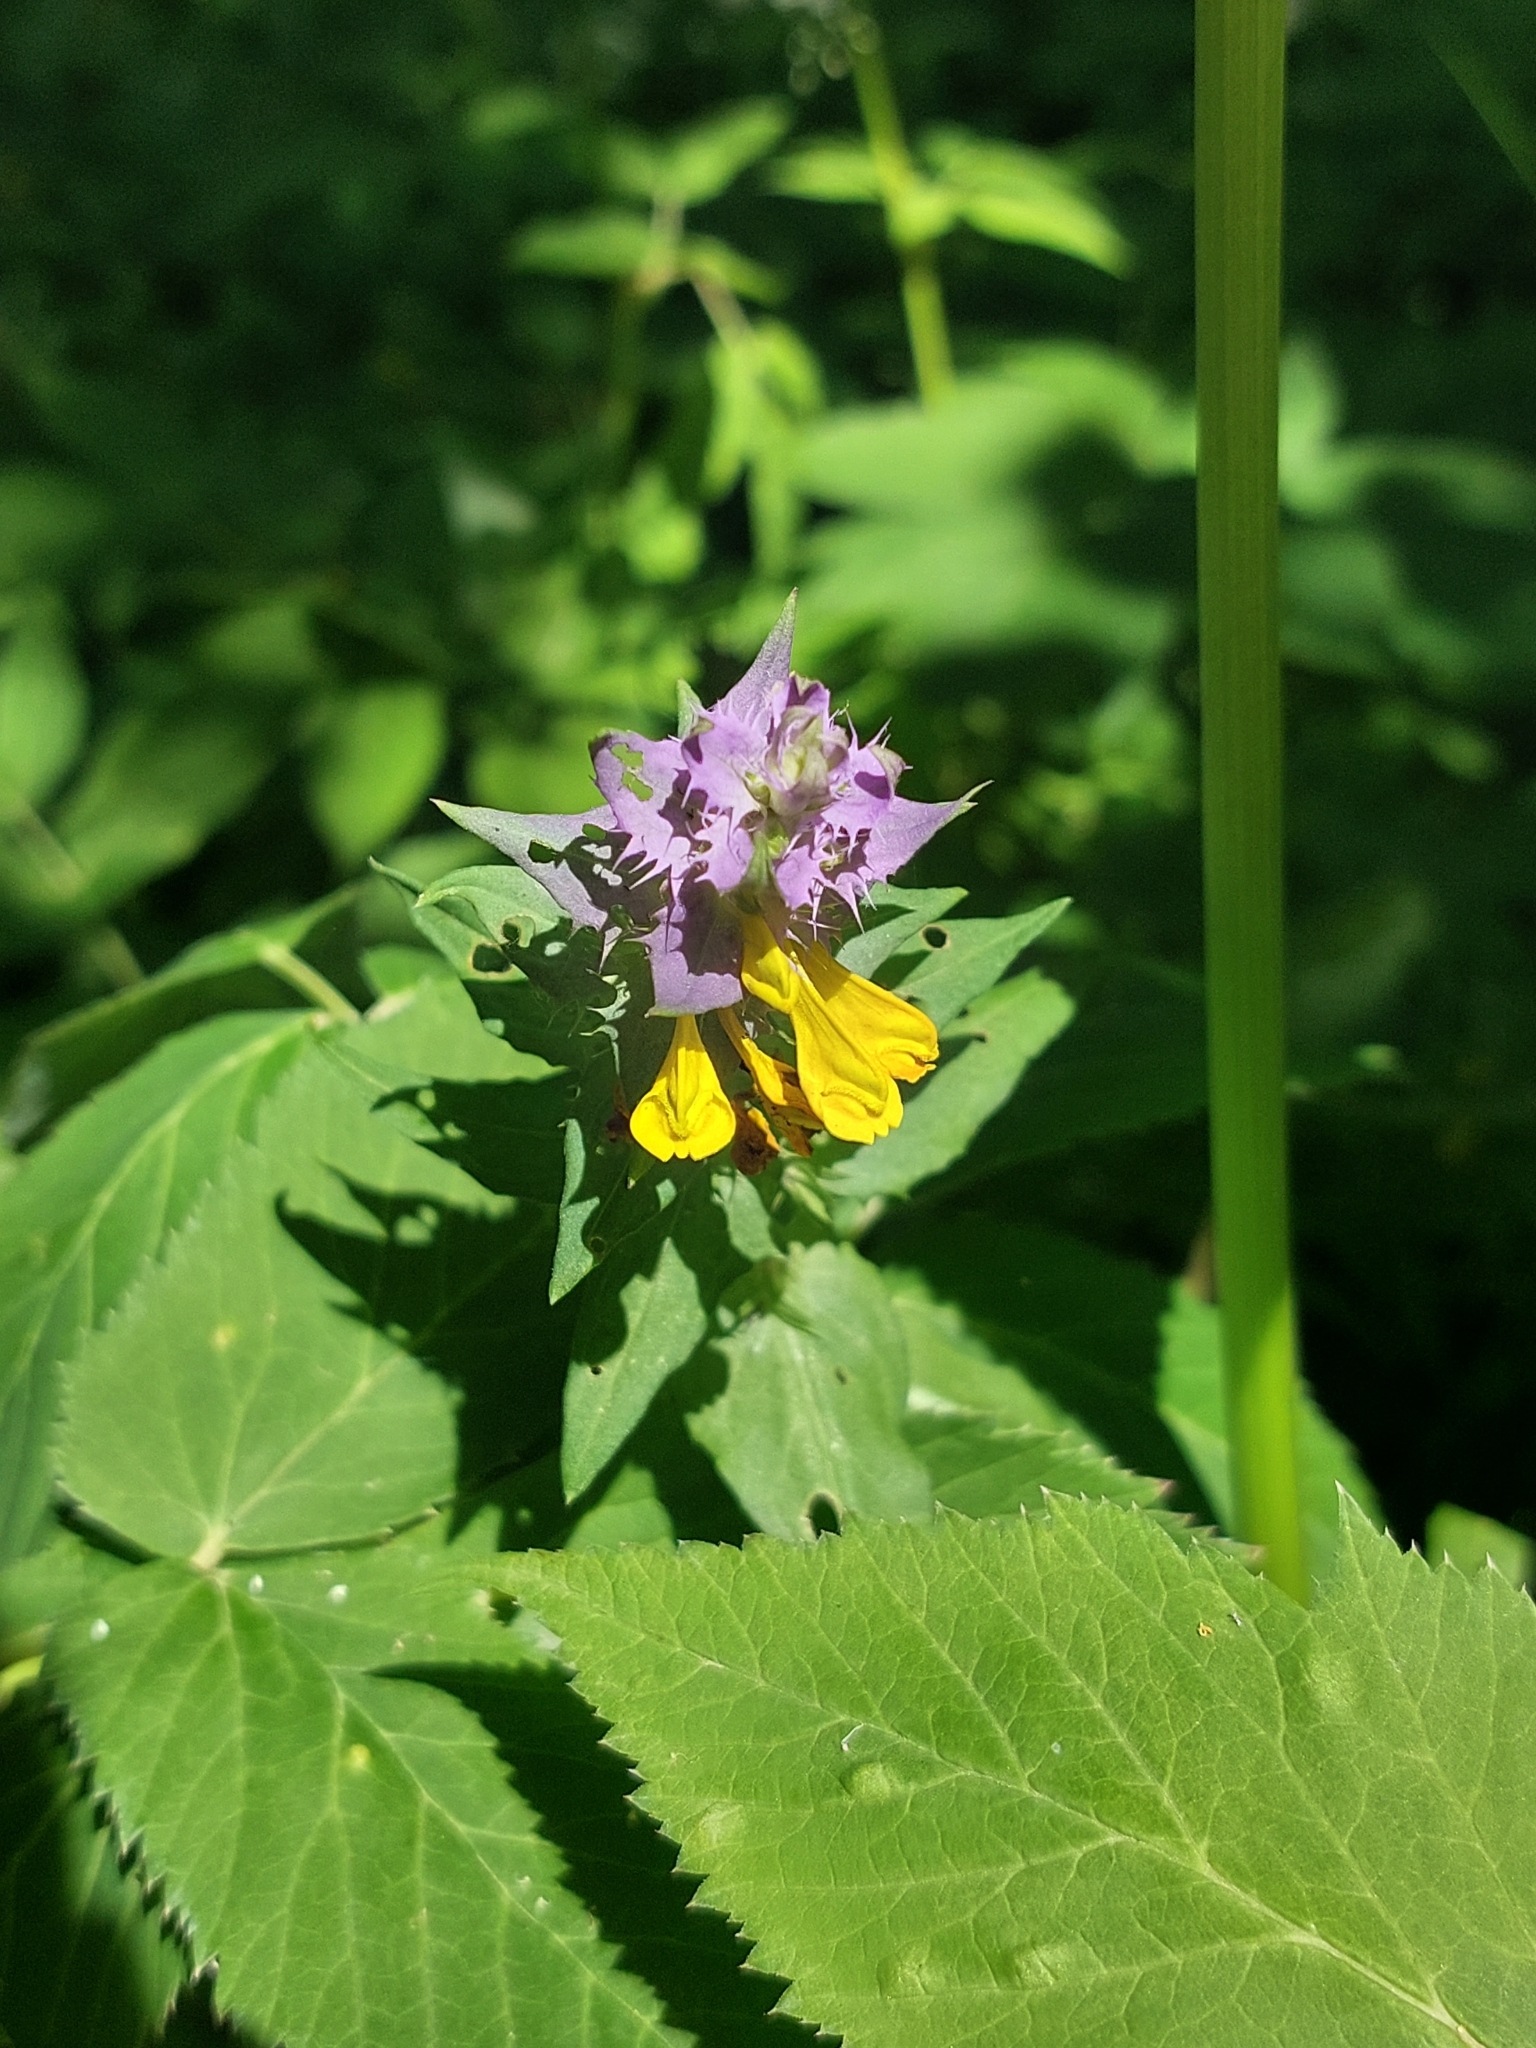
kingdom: Plantae
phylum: Tracheophyta
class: Magnoliopsida
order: Lamiales
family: Orobanchaceae
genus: Melampyrum
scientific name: Melampyrum nemorosum
